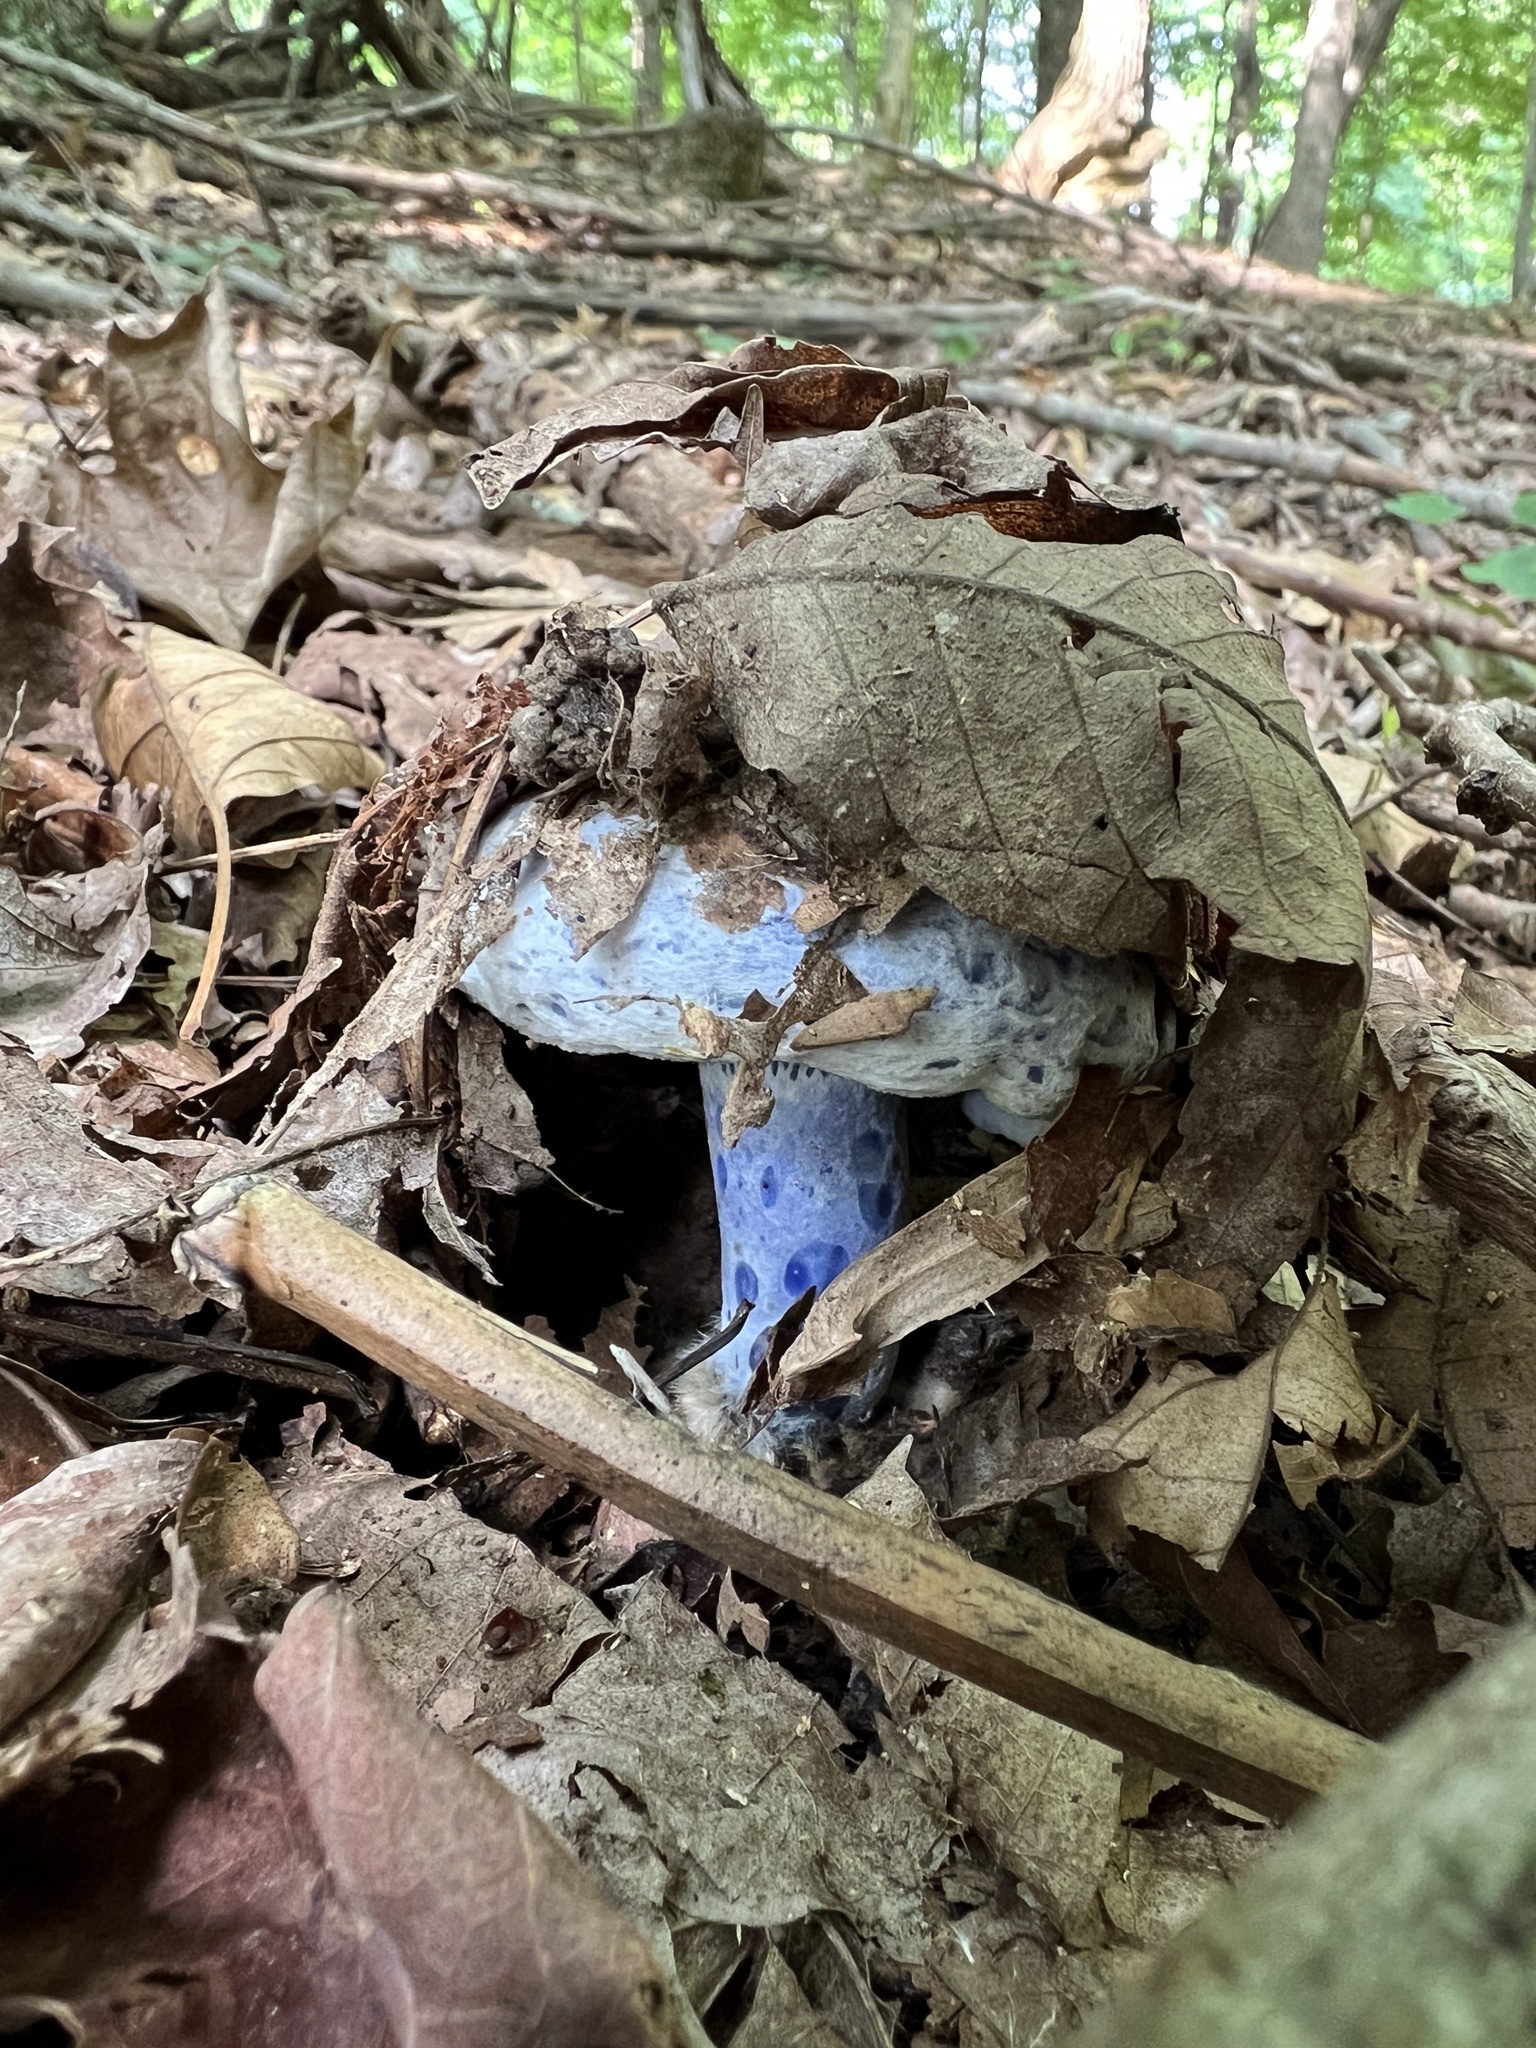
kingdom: Fungi
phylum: Basidiomycota
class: Agaricomycetes
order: Russulales
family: Russulaceae
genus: Lactarius
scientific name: Lactarius indigo
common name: Indigo milk cap
